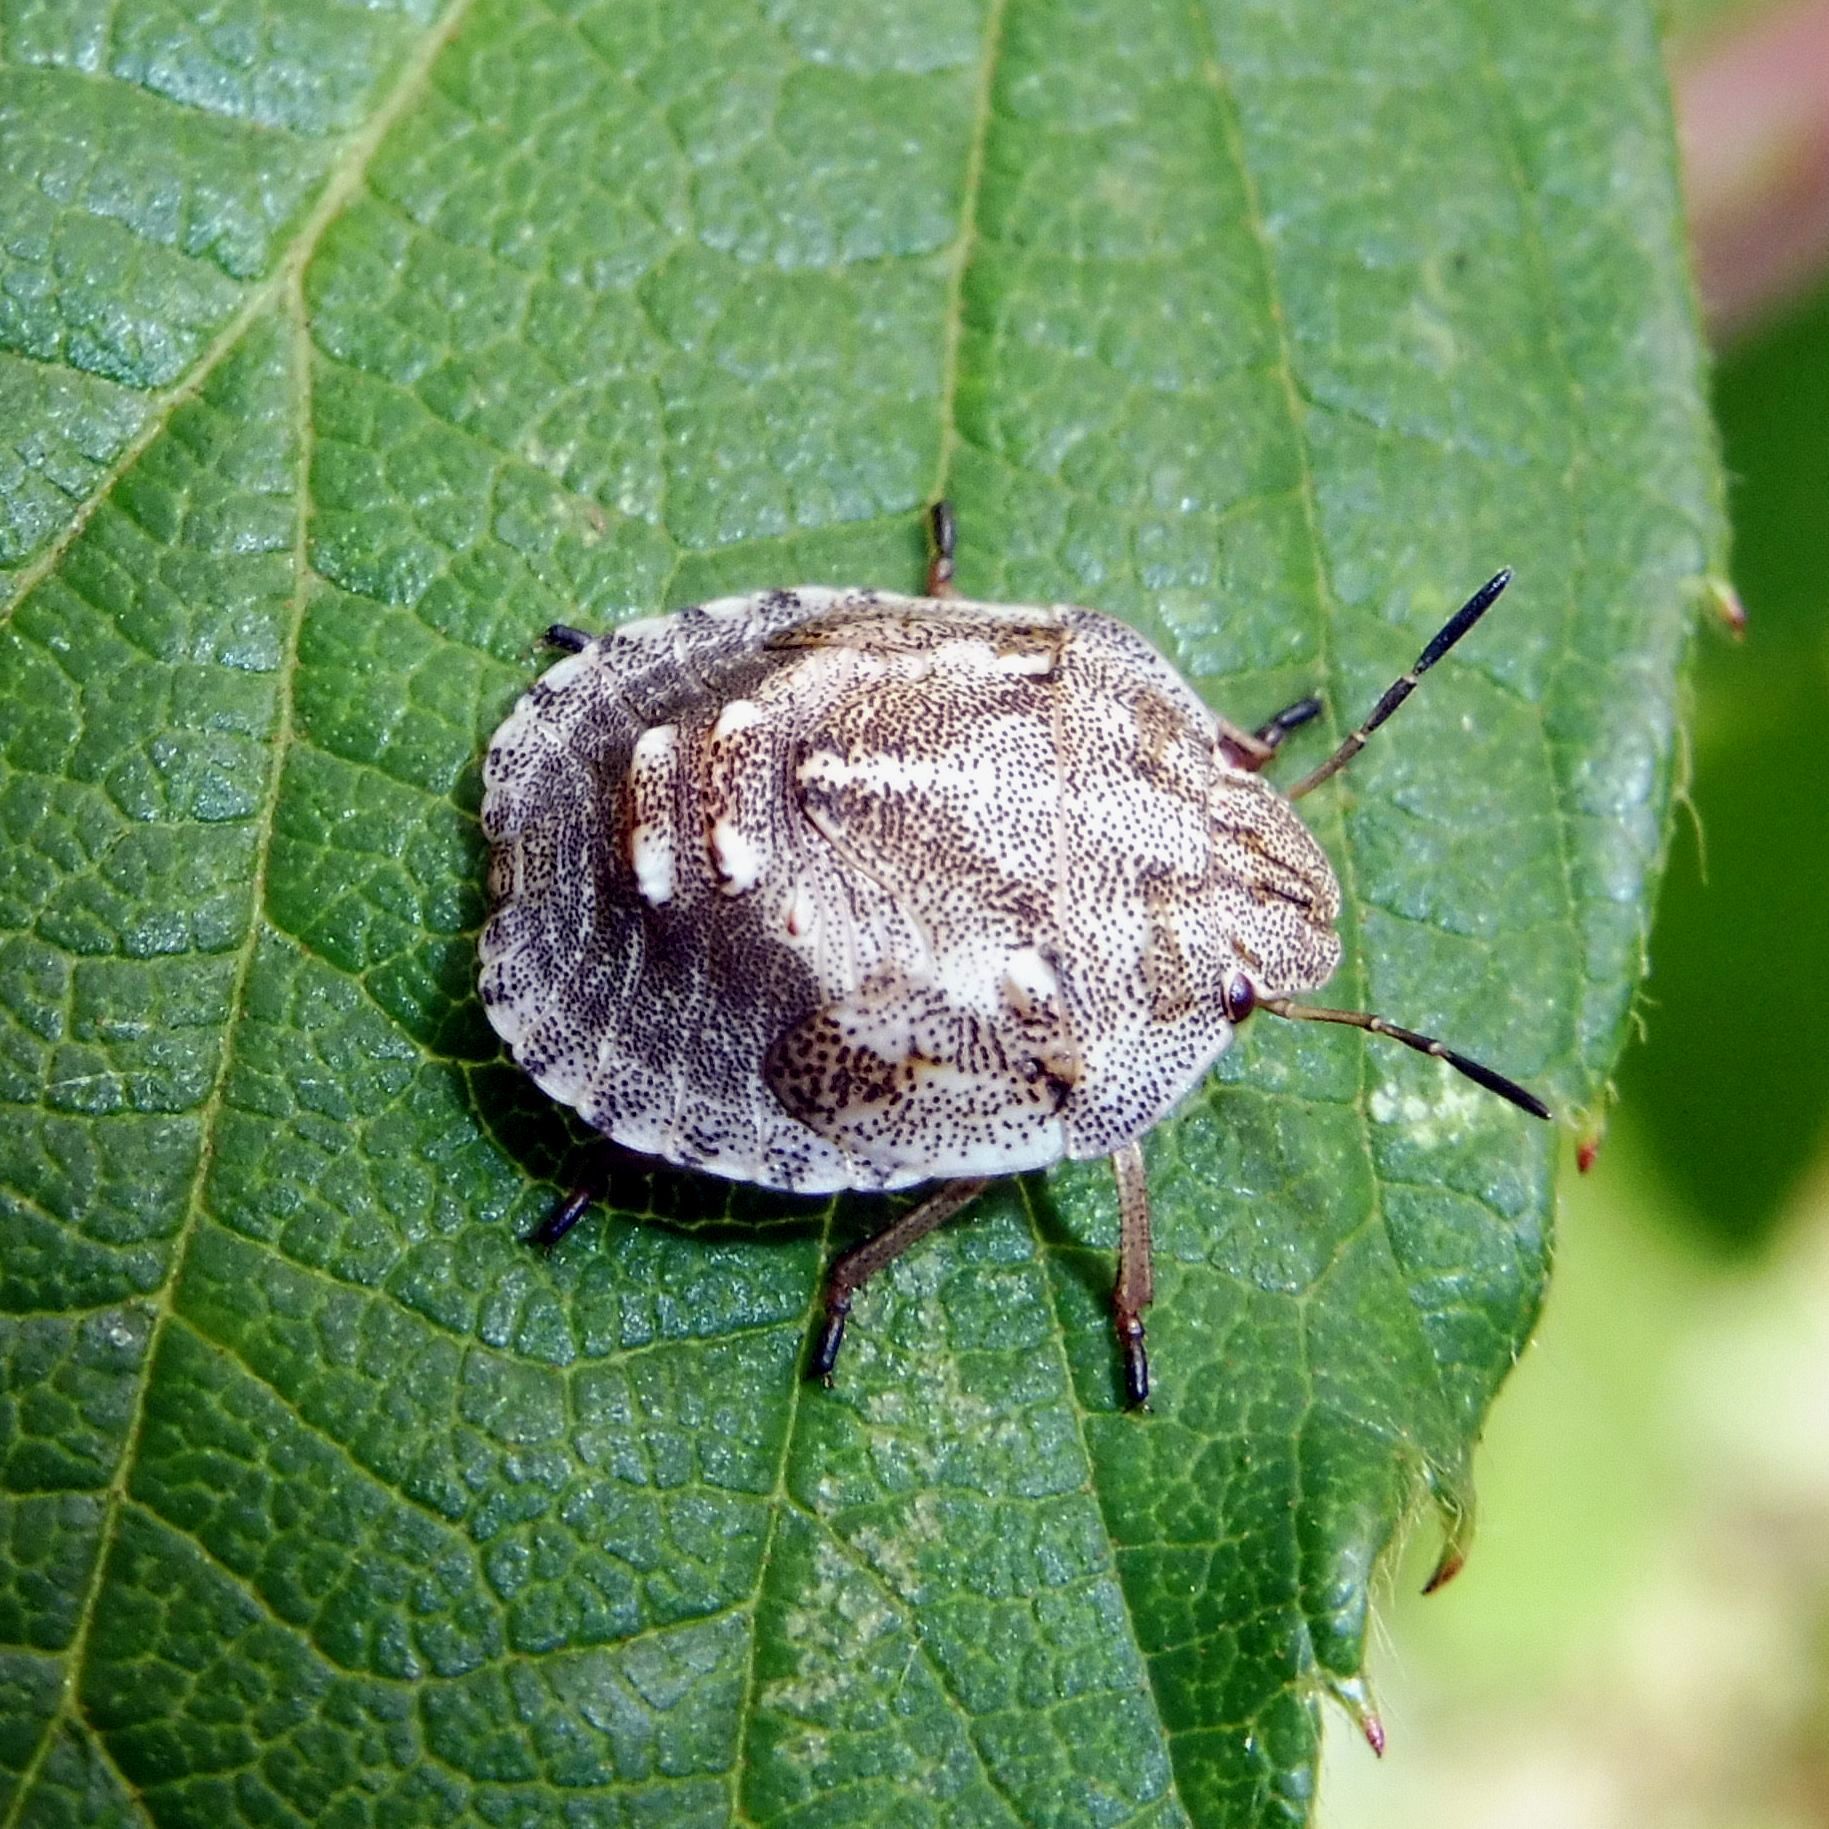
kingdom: Animalia
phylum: Arthropoda
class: Insecta
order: Hemiptera
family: Scutelleridae
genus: Eurygaster
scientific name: Eurygaster testudinaria
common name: Tortoise bug
